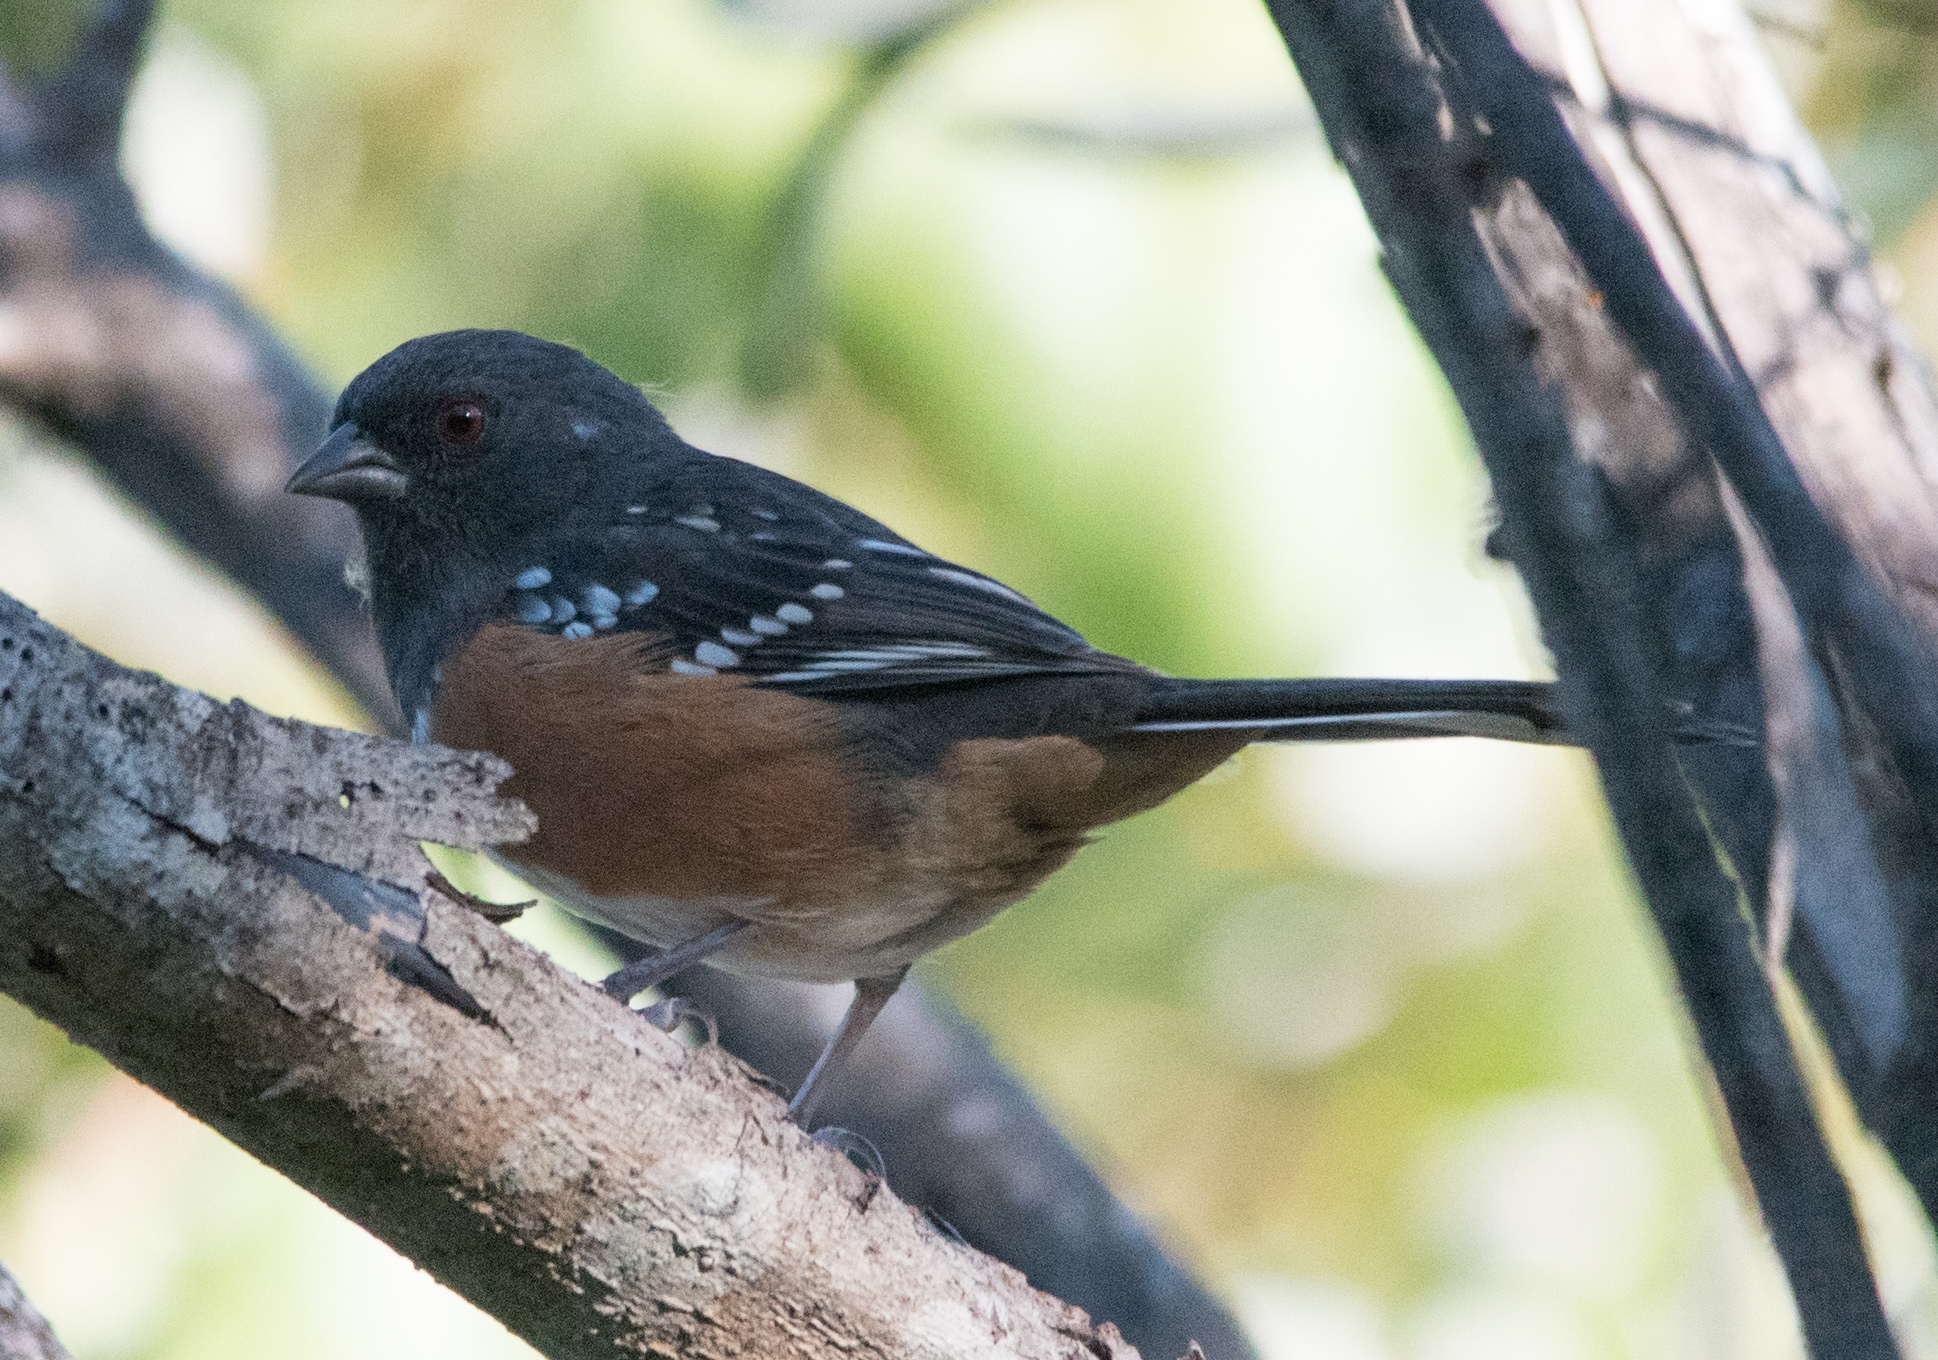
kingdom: Animalia
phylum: Chordata
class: Aves
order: Passeriformes
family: Passerellidae
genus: Pipilo
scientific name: Pipilo maculatus
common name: Spotted towhee
